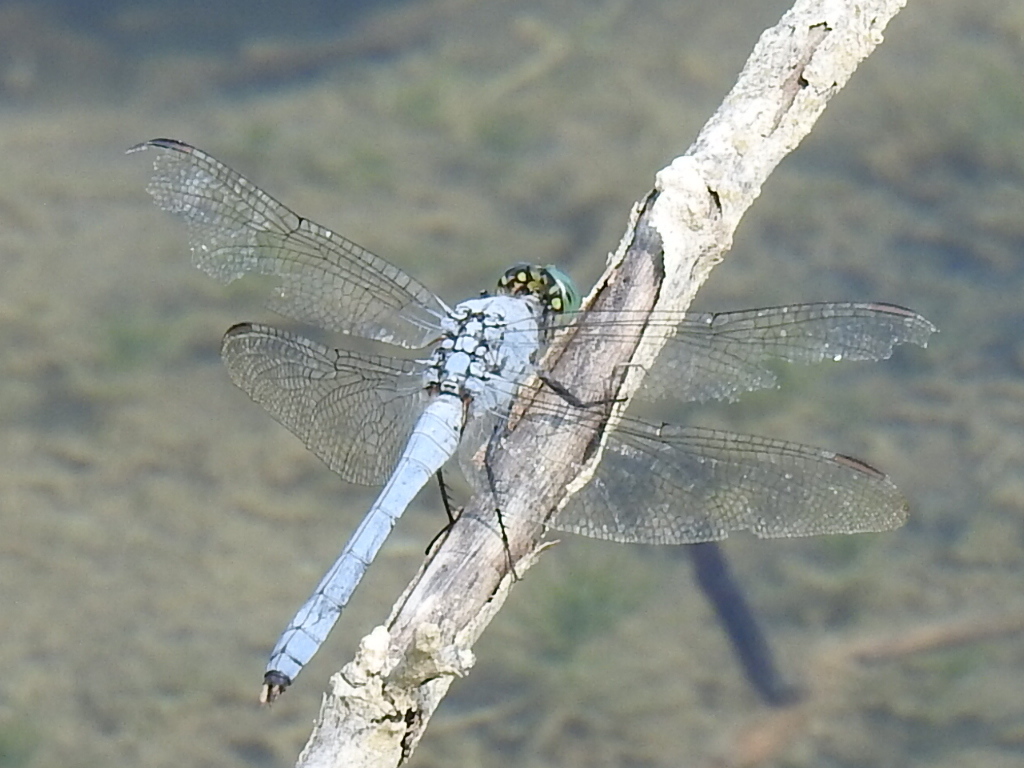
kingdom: Animalia
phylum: Arthropoda
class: Insecta
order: Odonata
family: Libellulidae
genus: Erythemis
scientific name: Erythemis simplicicollis
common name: Eastern pondhawk
